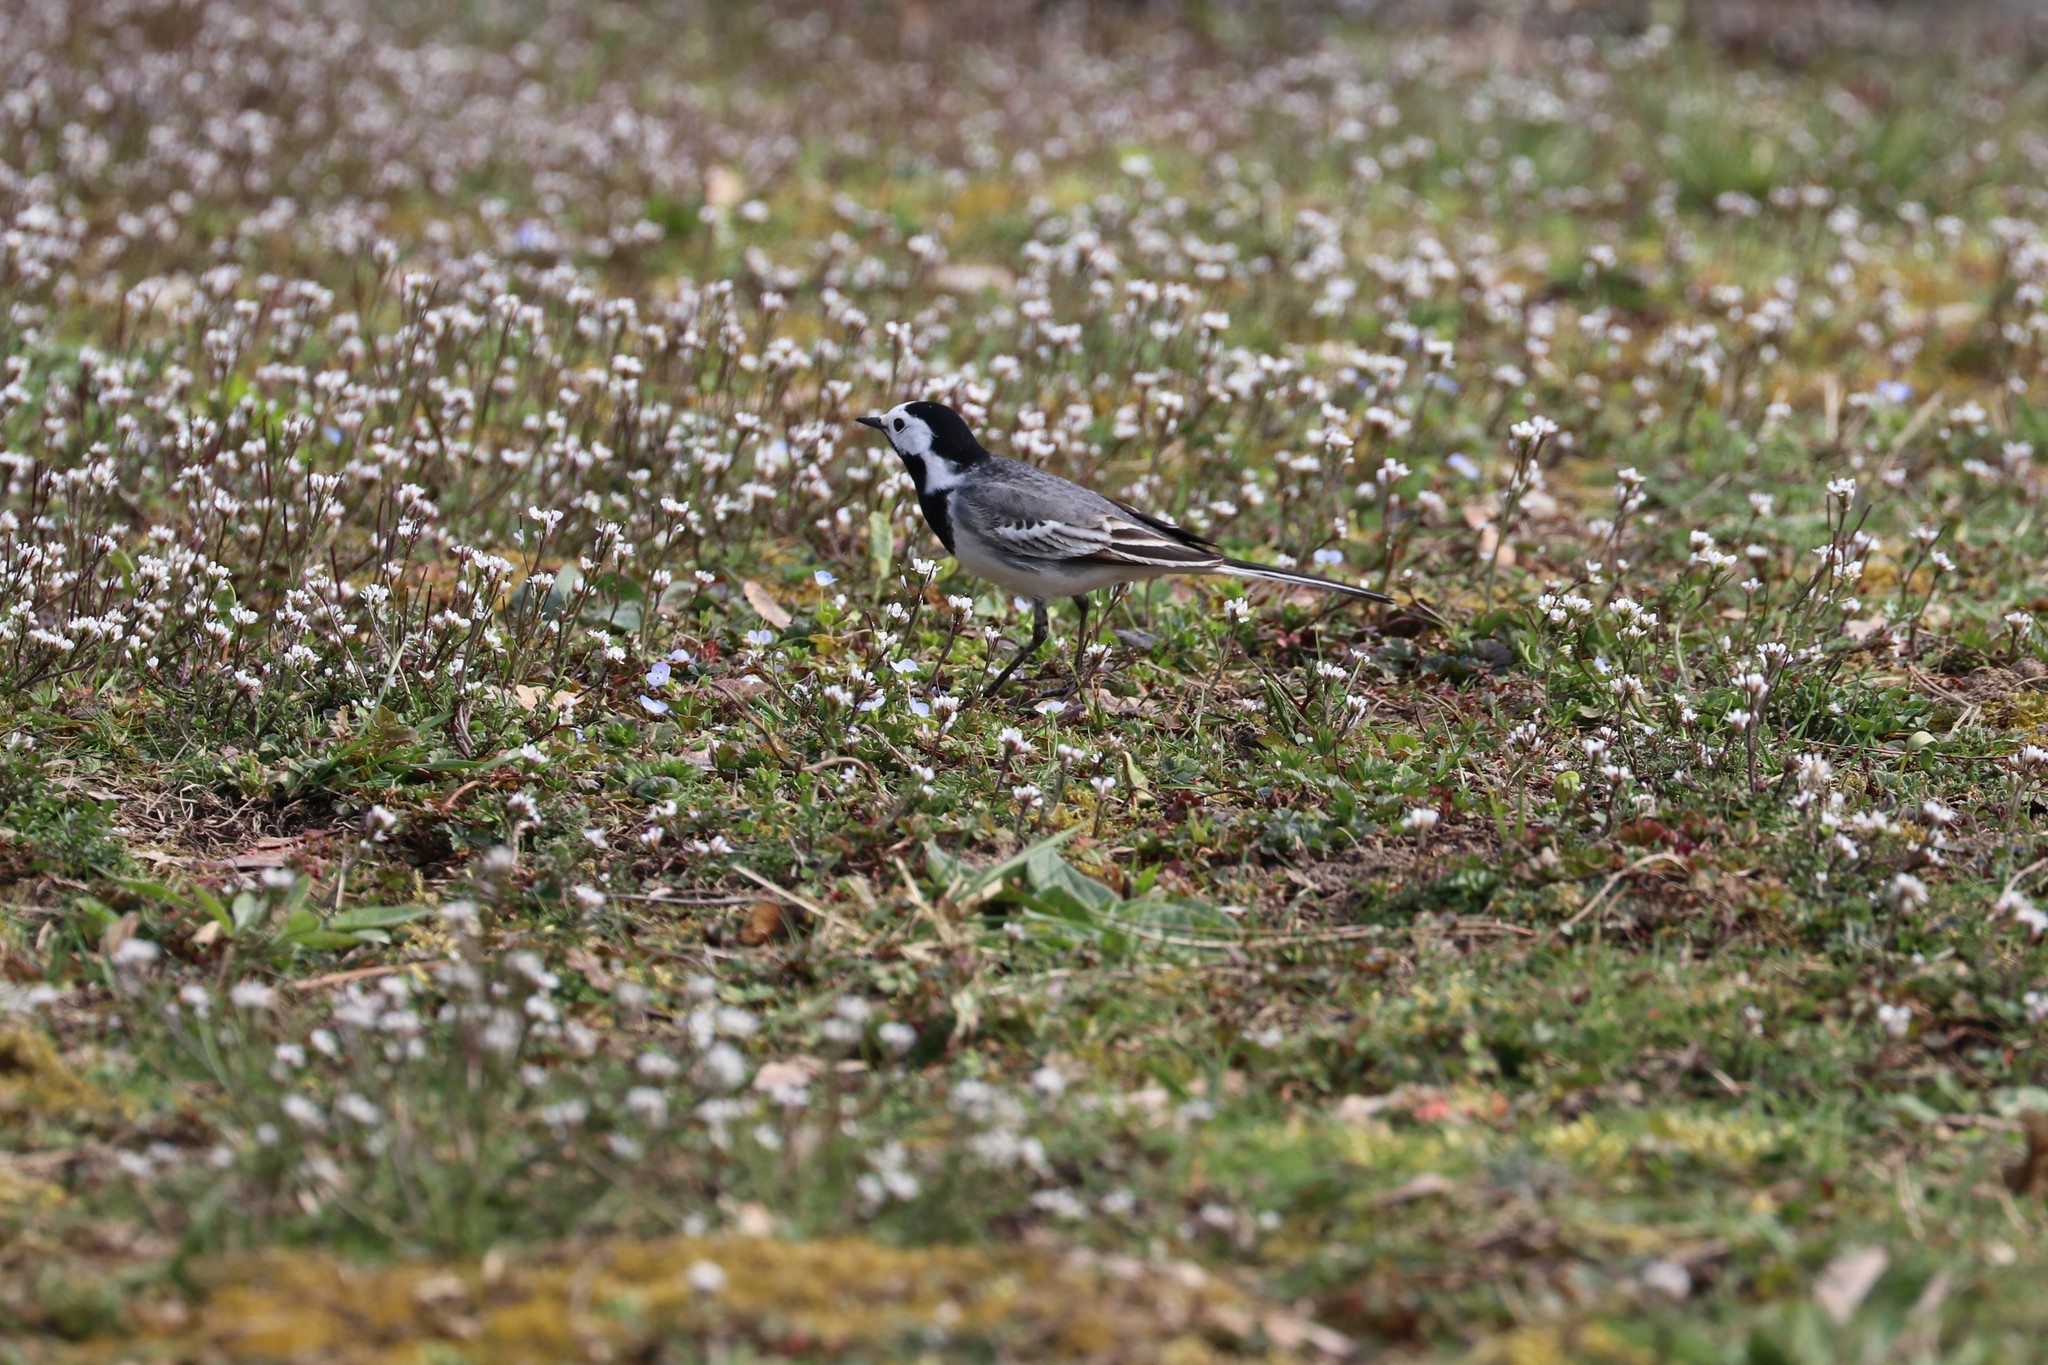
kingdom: Animalia
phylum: Chordata
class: Aves
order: Passeriformes
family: Motacillidae
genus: Motacilla
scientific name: Motacilla alba
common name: White wagtail
